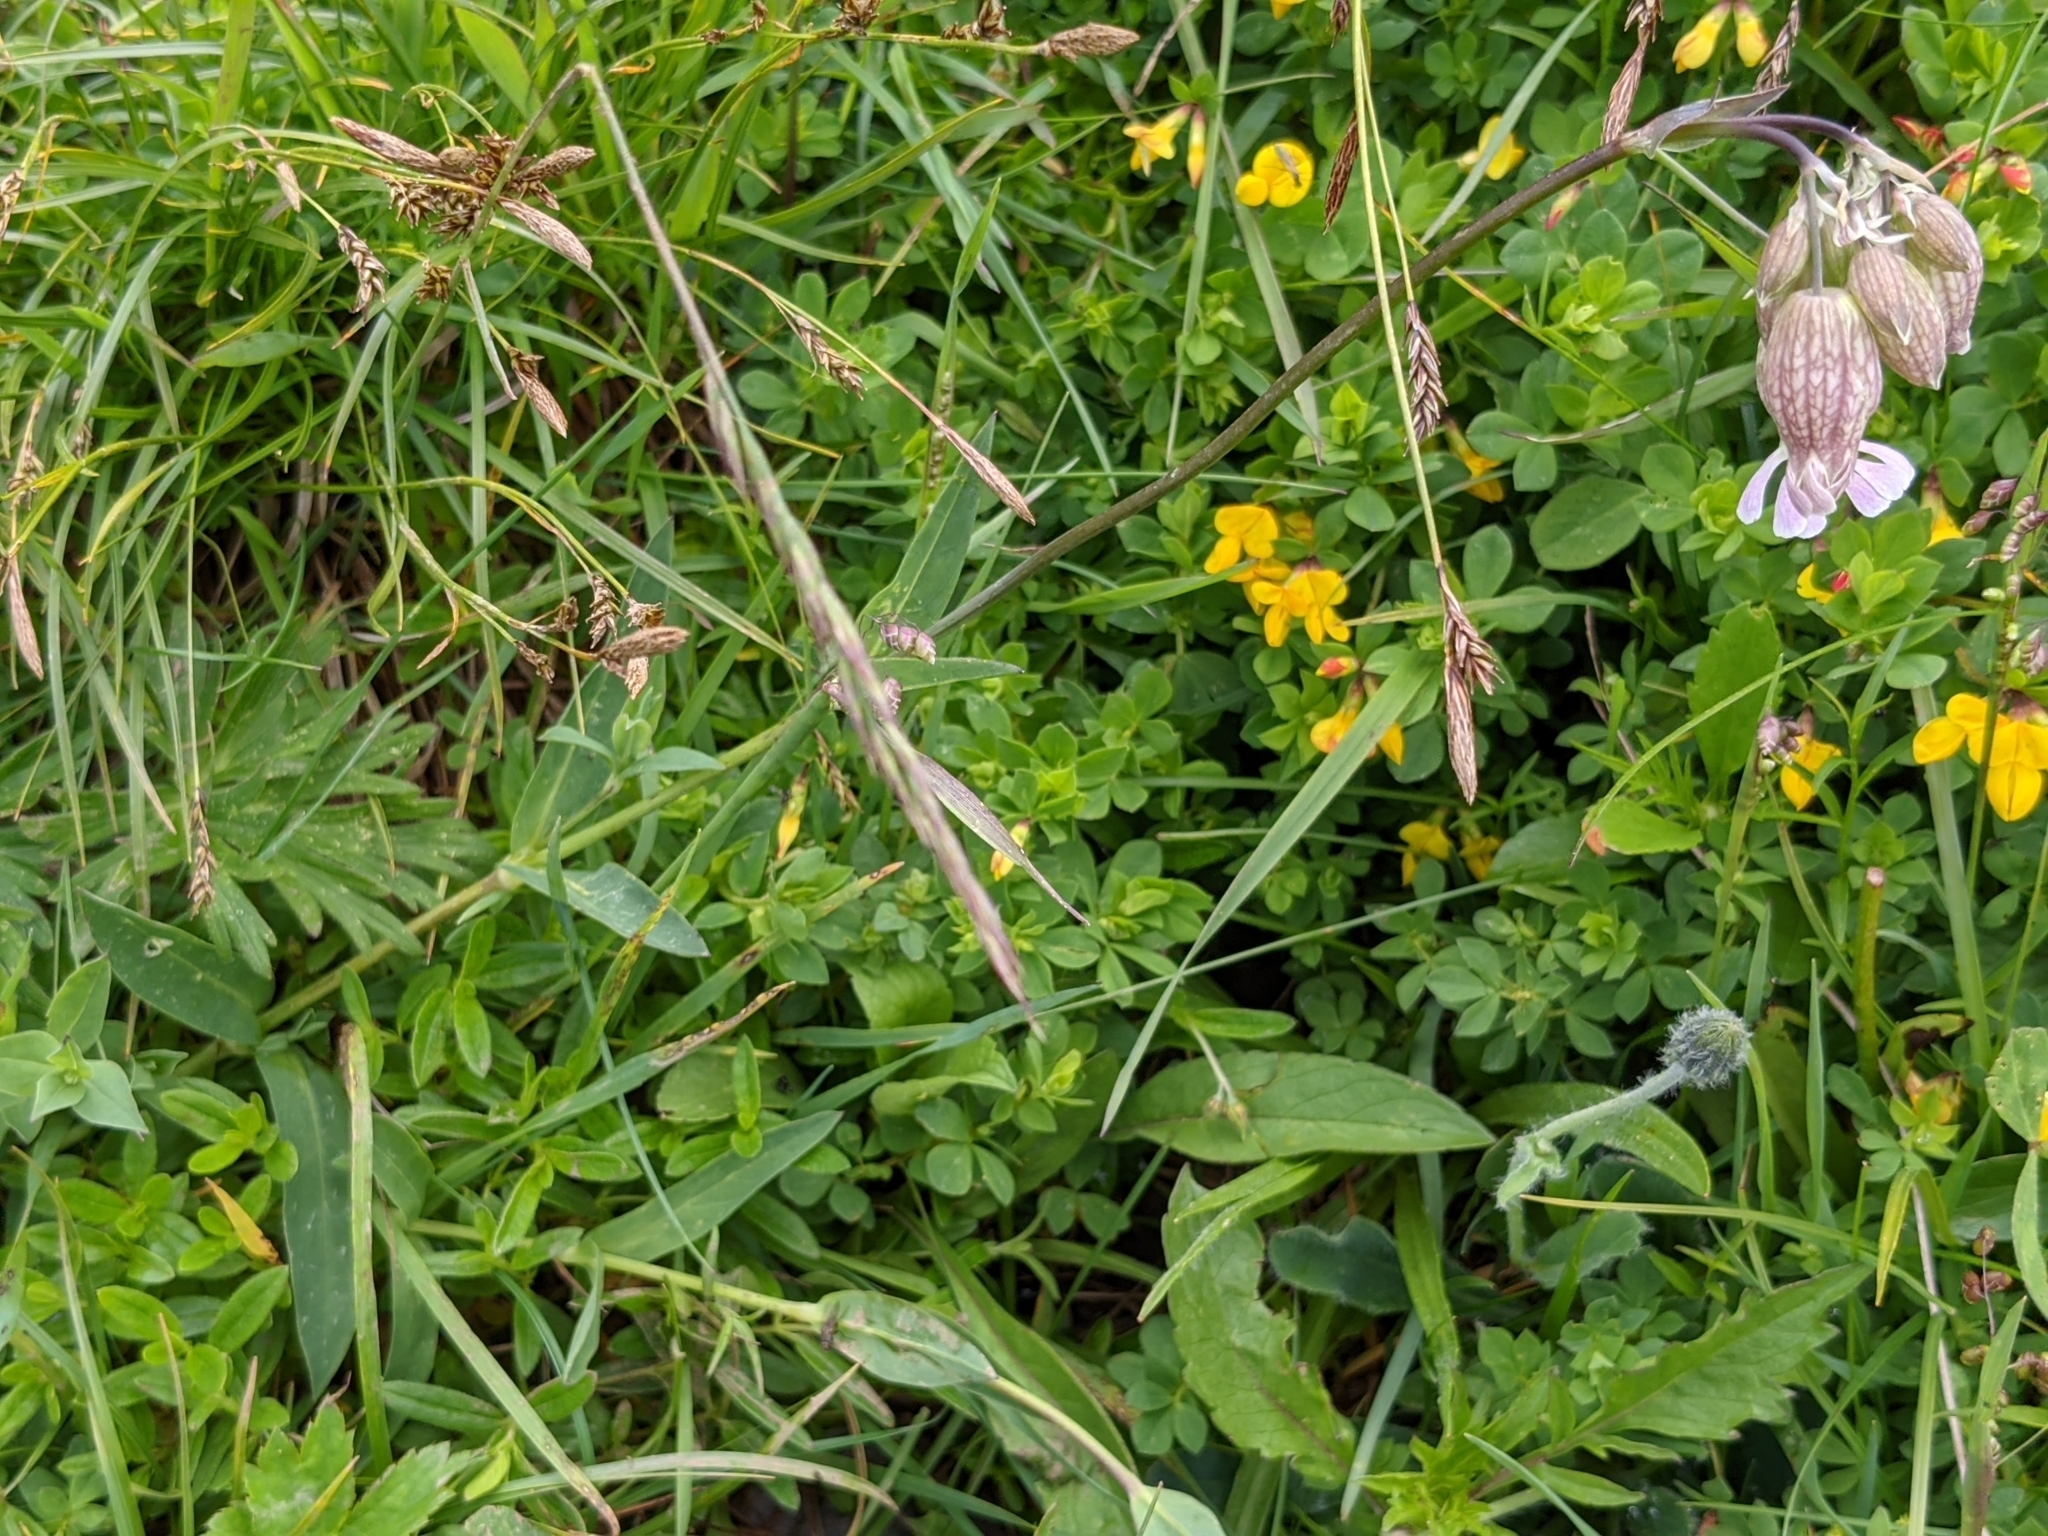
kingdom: Plantae
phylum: Tracheophyta
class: Magnoliopsida
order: Caryophyllales
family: Caryophyllaceae
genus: Silene
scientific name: Silene vulgaris
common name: Bladder campion
